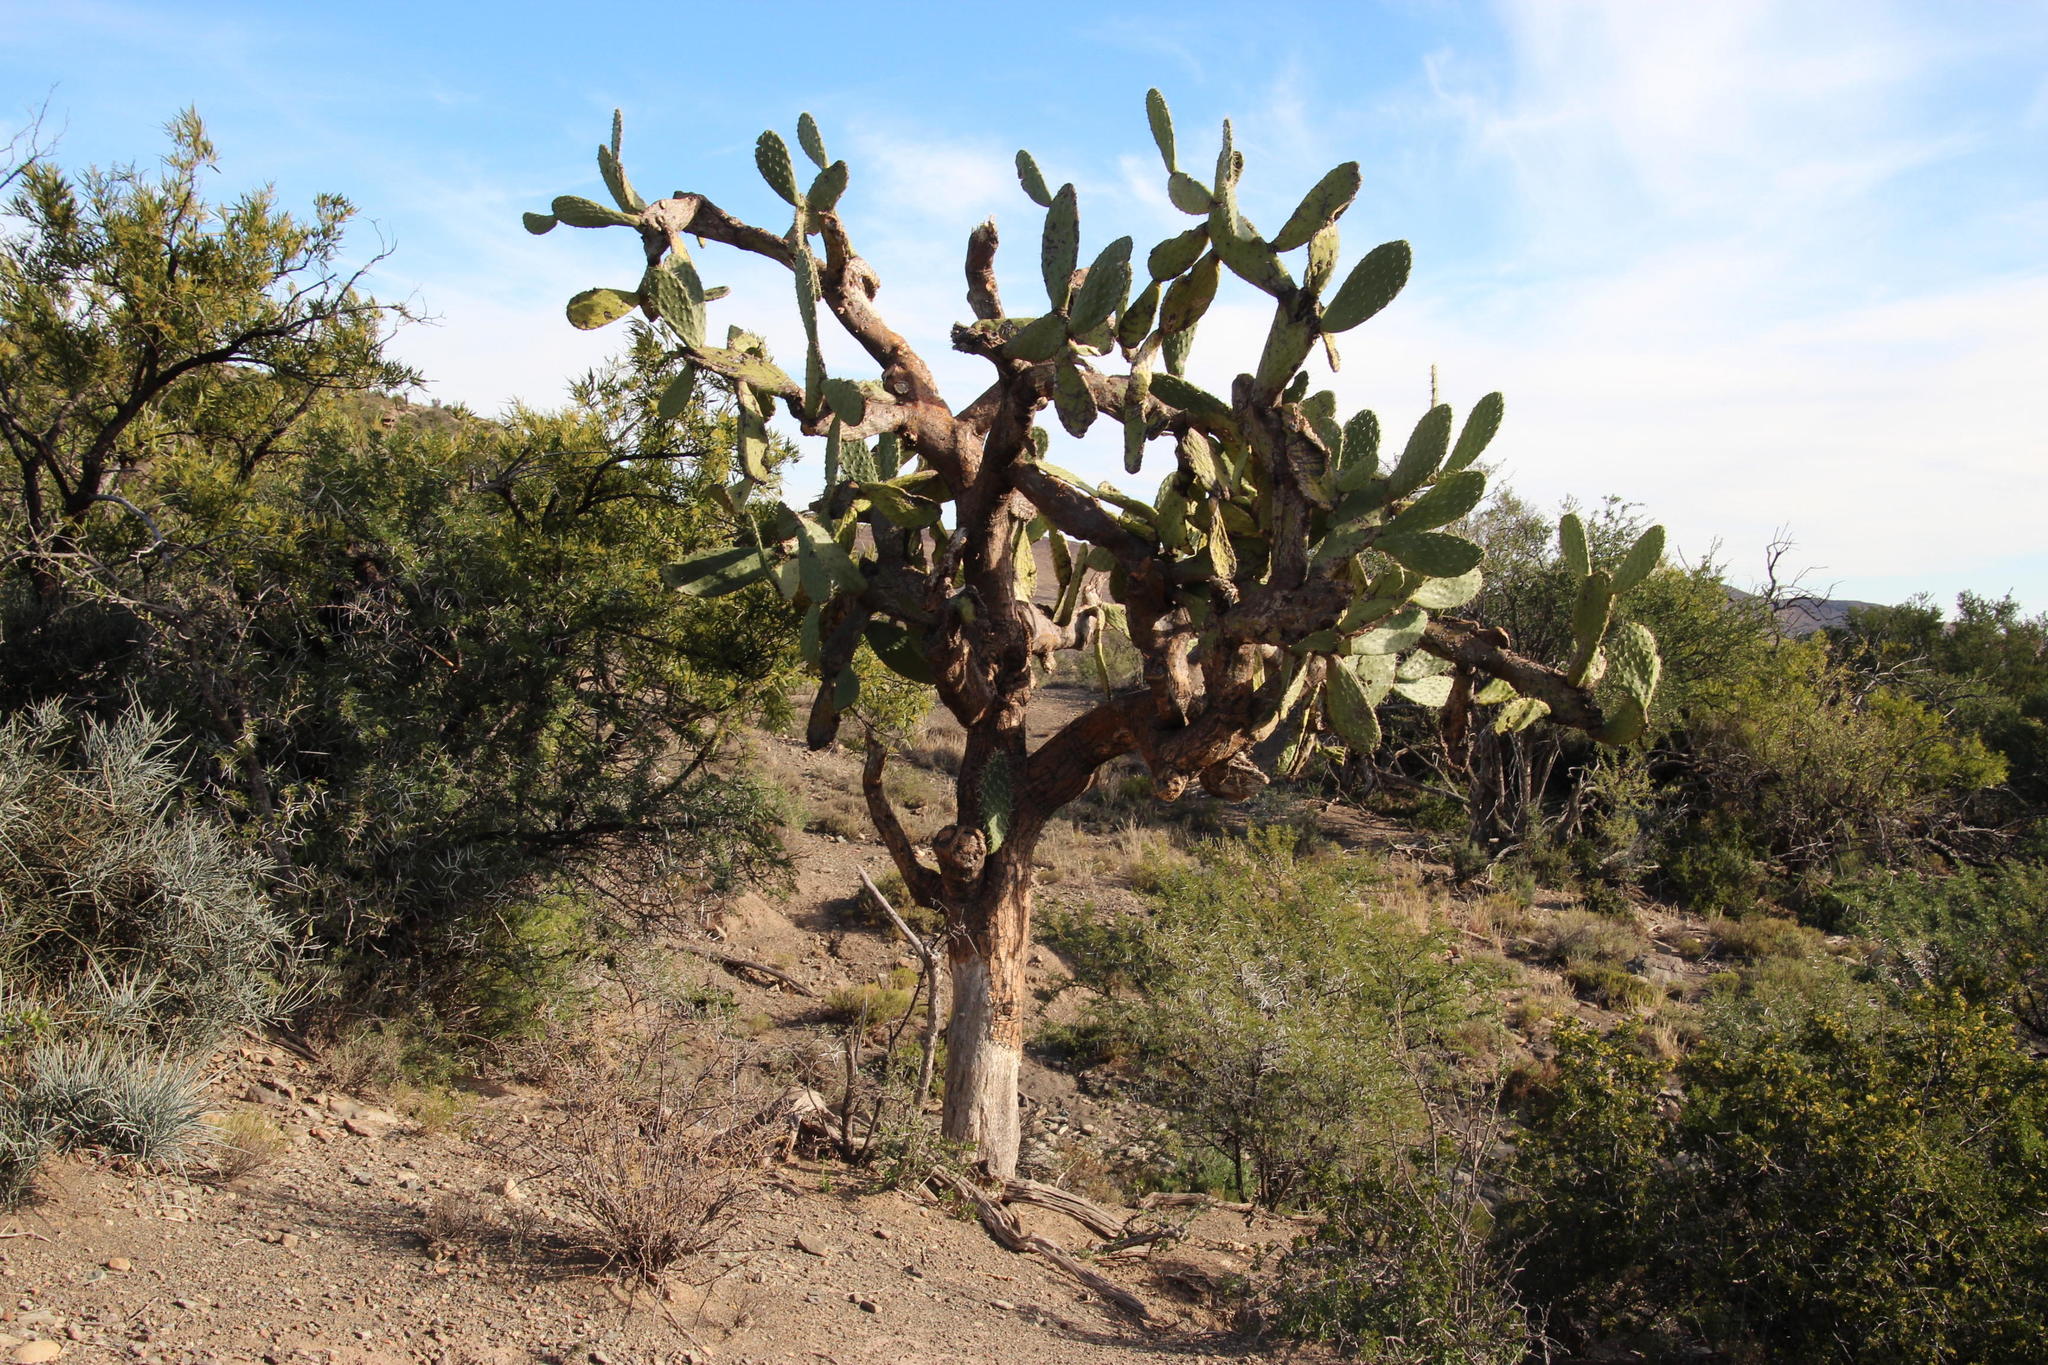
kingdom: Plantae
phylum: Tracheophyta
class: Magnoliopsida
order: Caryophyllales
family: Cactaceae
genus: Opuntia
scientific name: Opuntia ficus-indica
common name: Barbary fig
